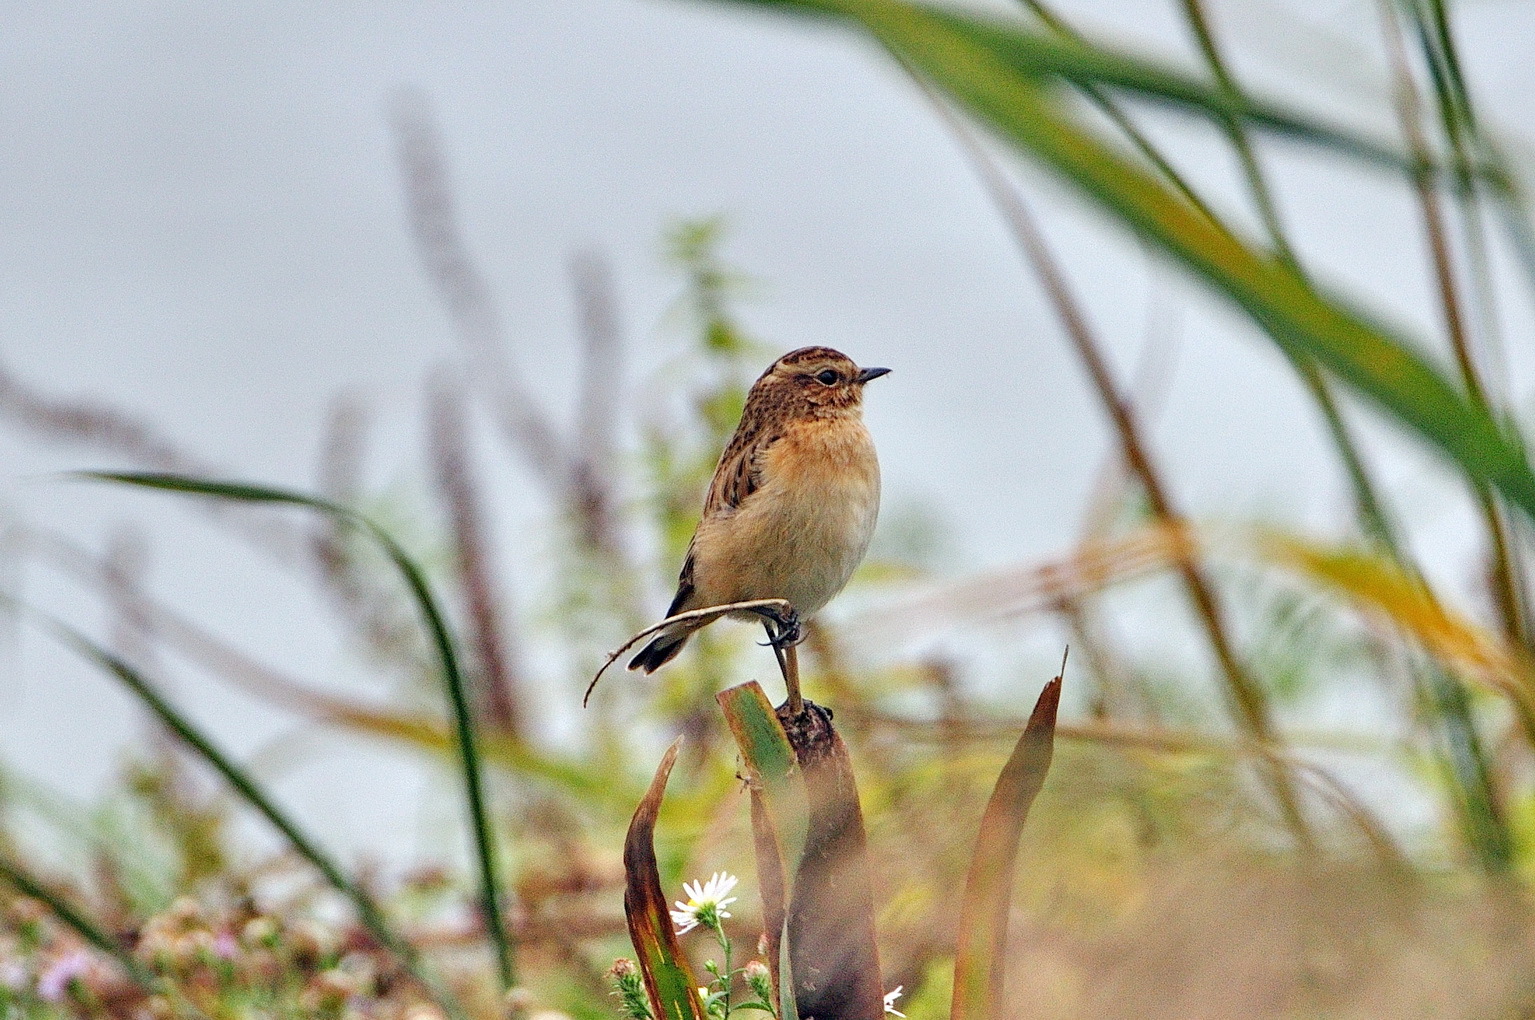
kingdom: Animalia
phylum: Chordata
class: Aves
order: Passeriformes
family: Muscicapidae
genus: Saxicola
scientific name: Saxicola rubetra
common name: Whinchat
